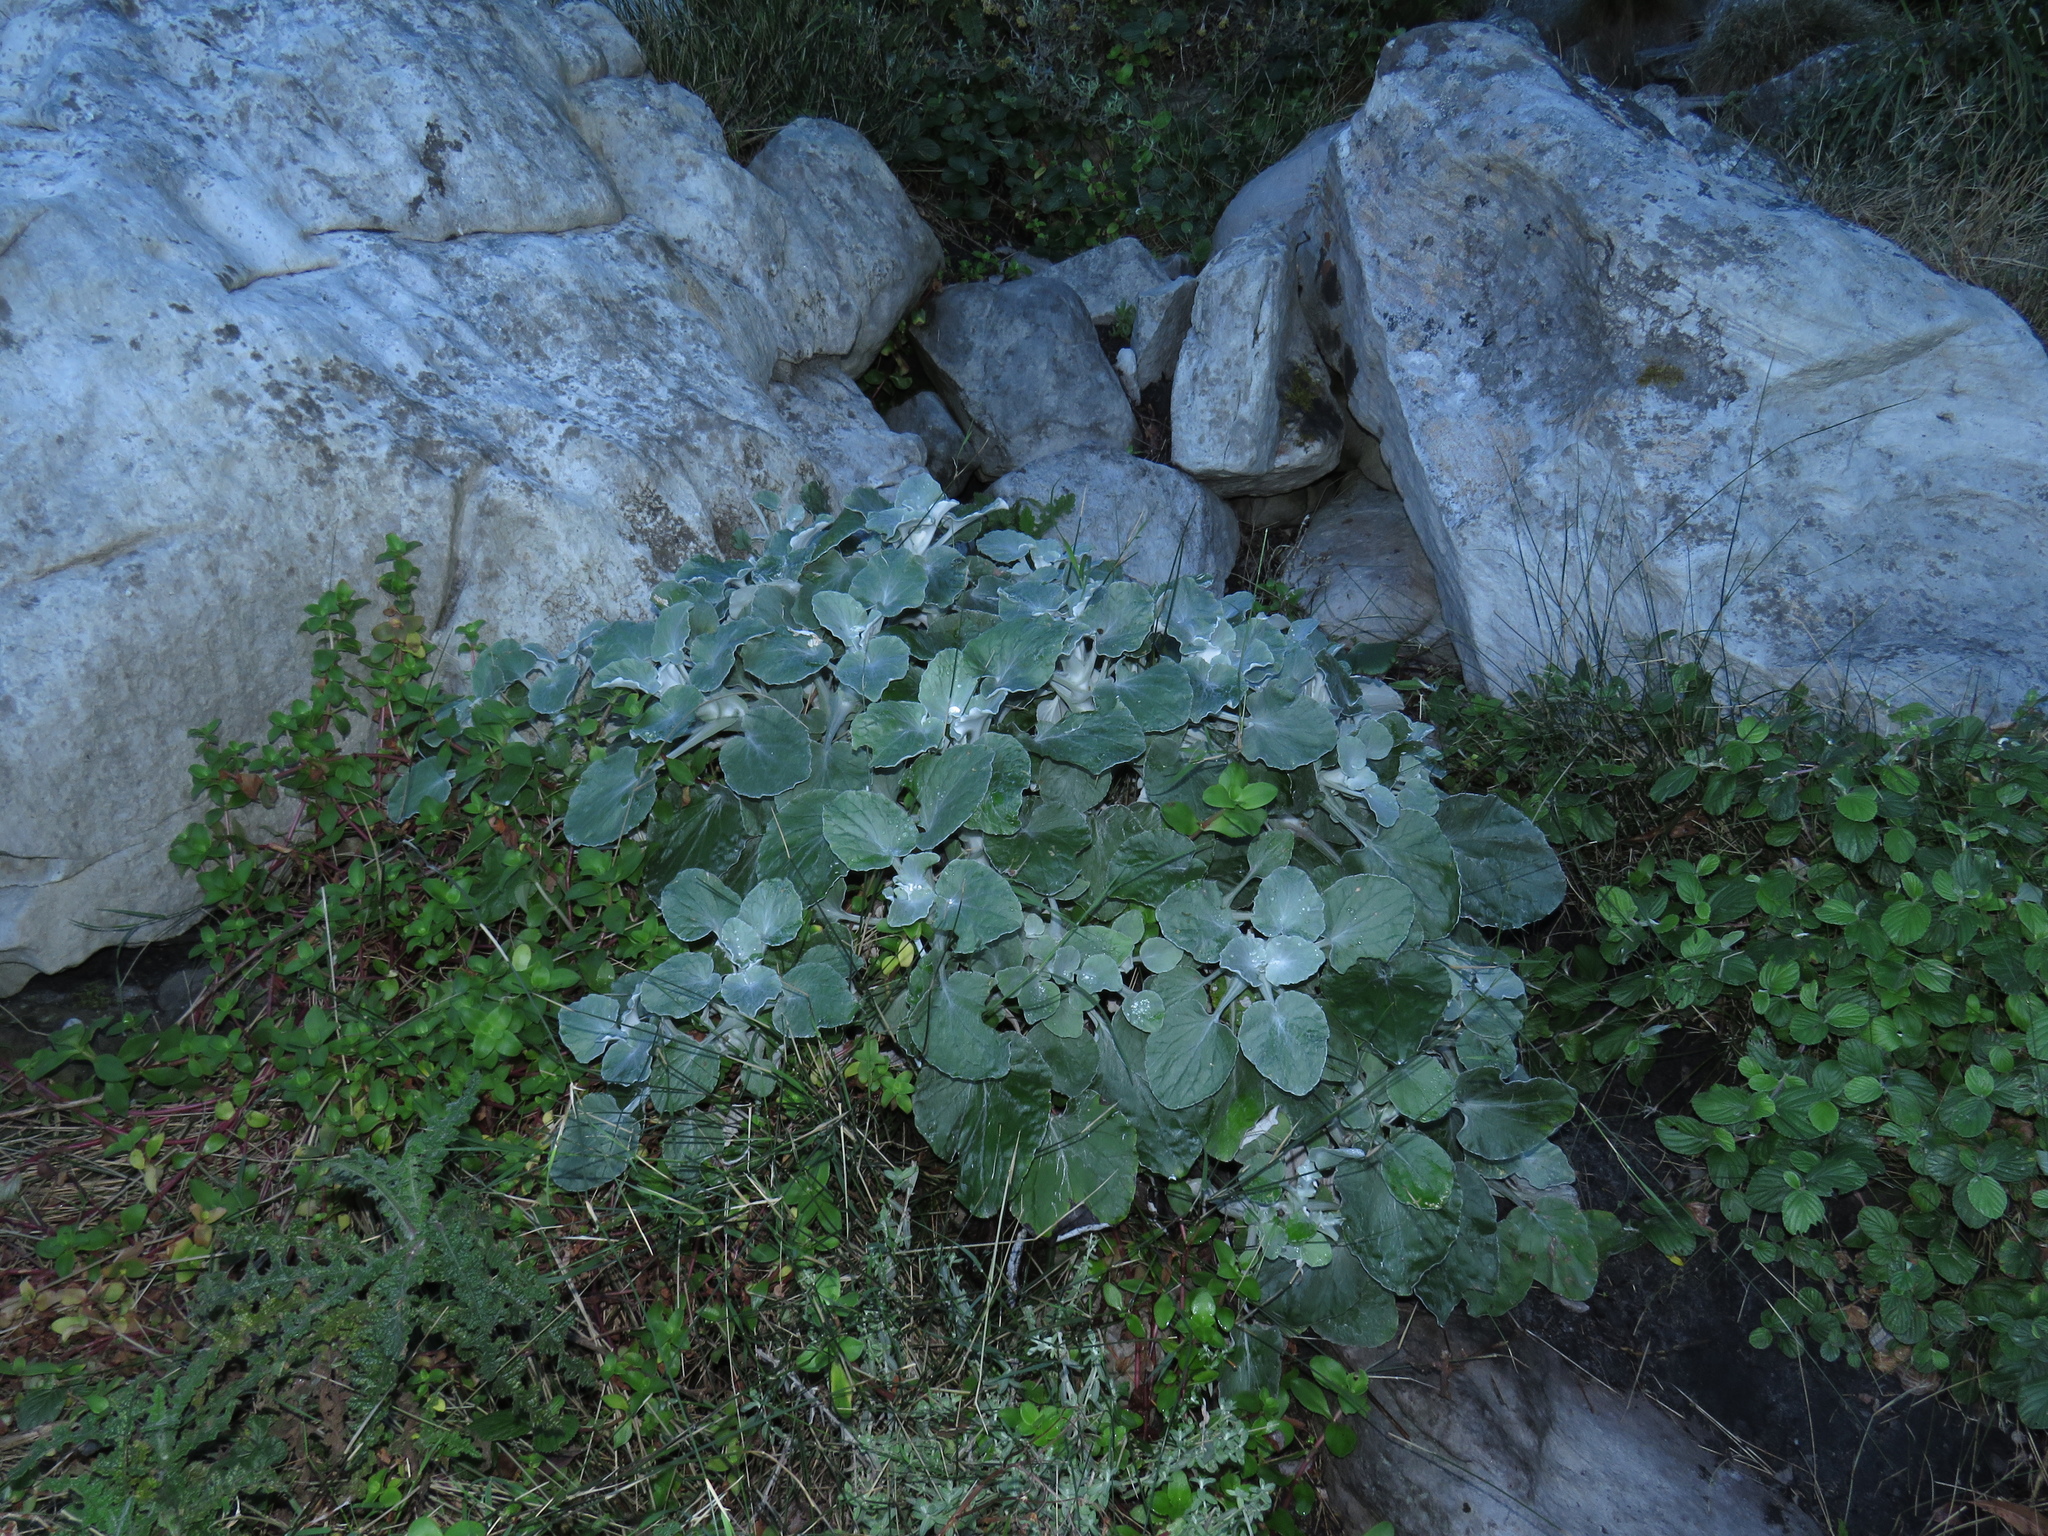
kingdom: Plantae
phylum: Tracheophyta
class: Magnoliopsida
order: Asterales
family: Asteraceae
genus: Senecio
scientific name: Senecio verbascifolius
